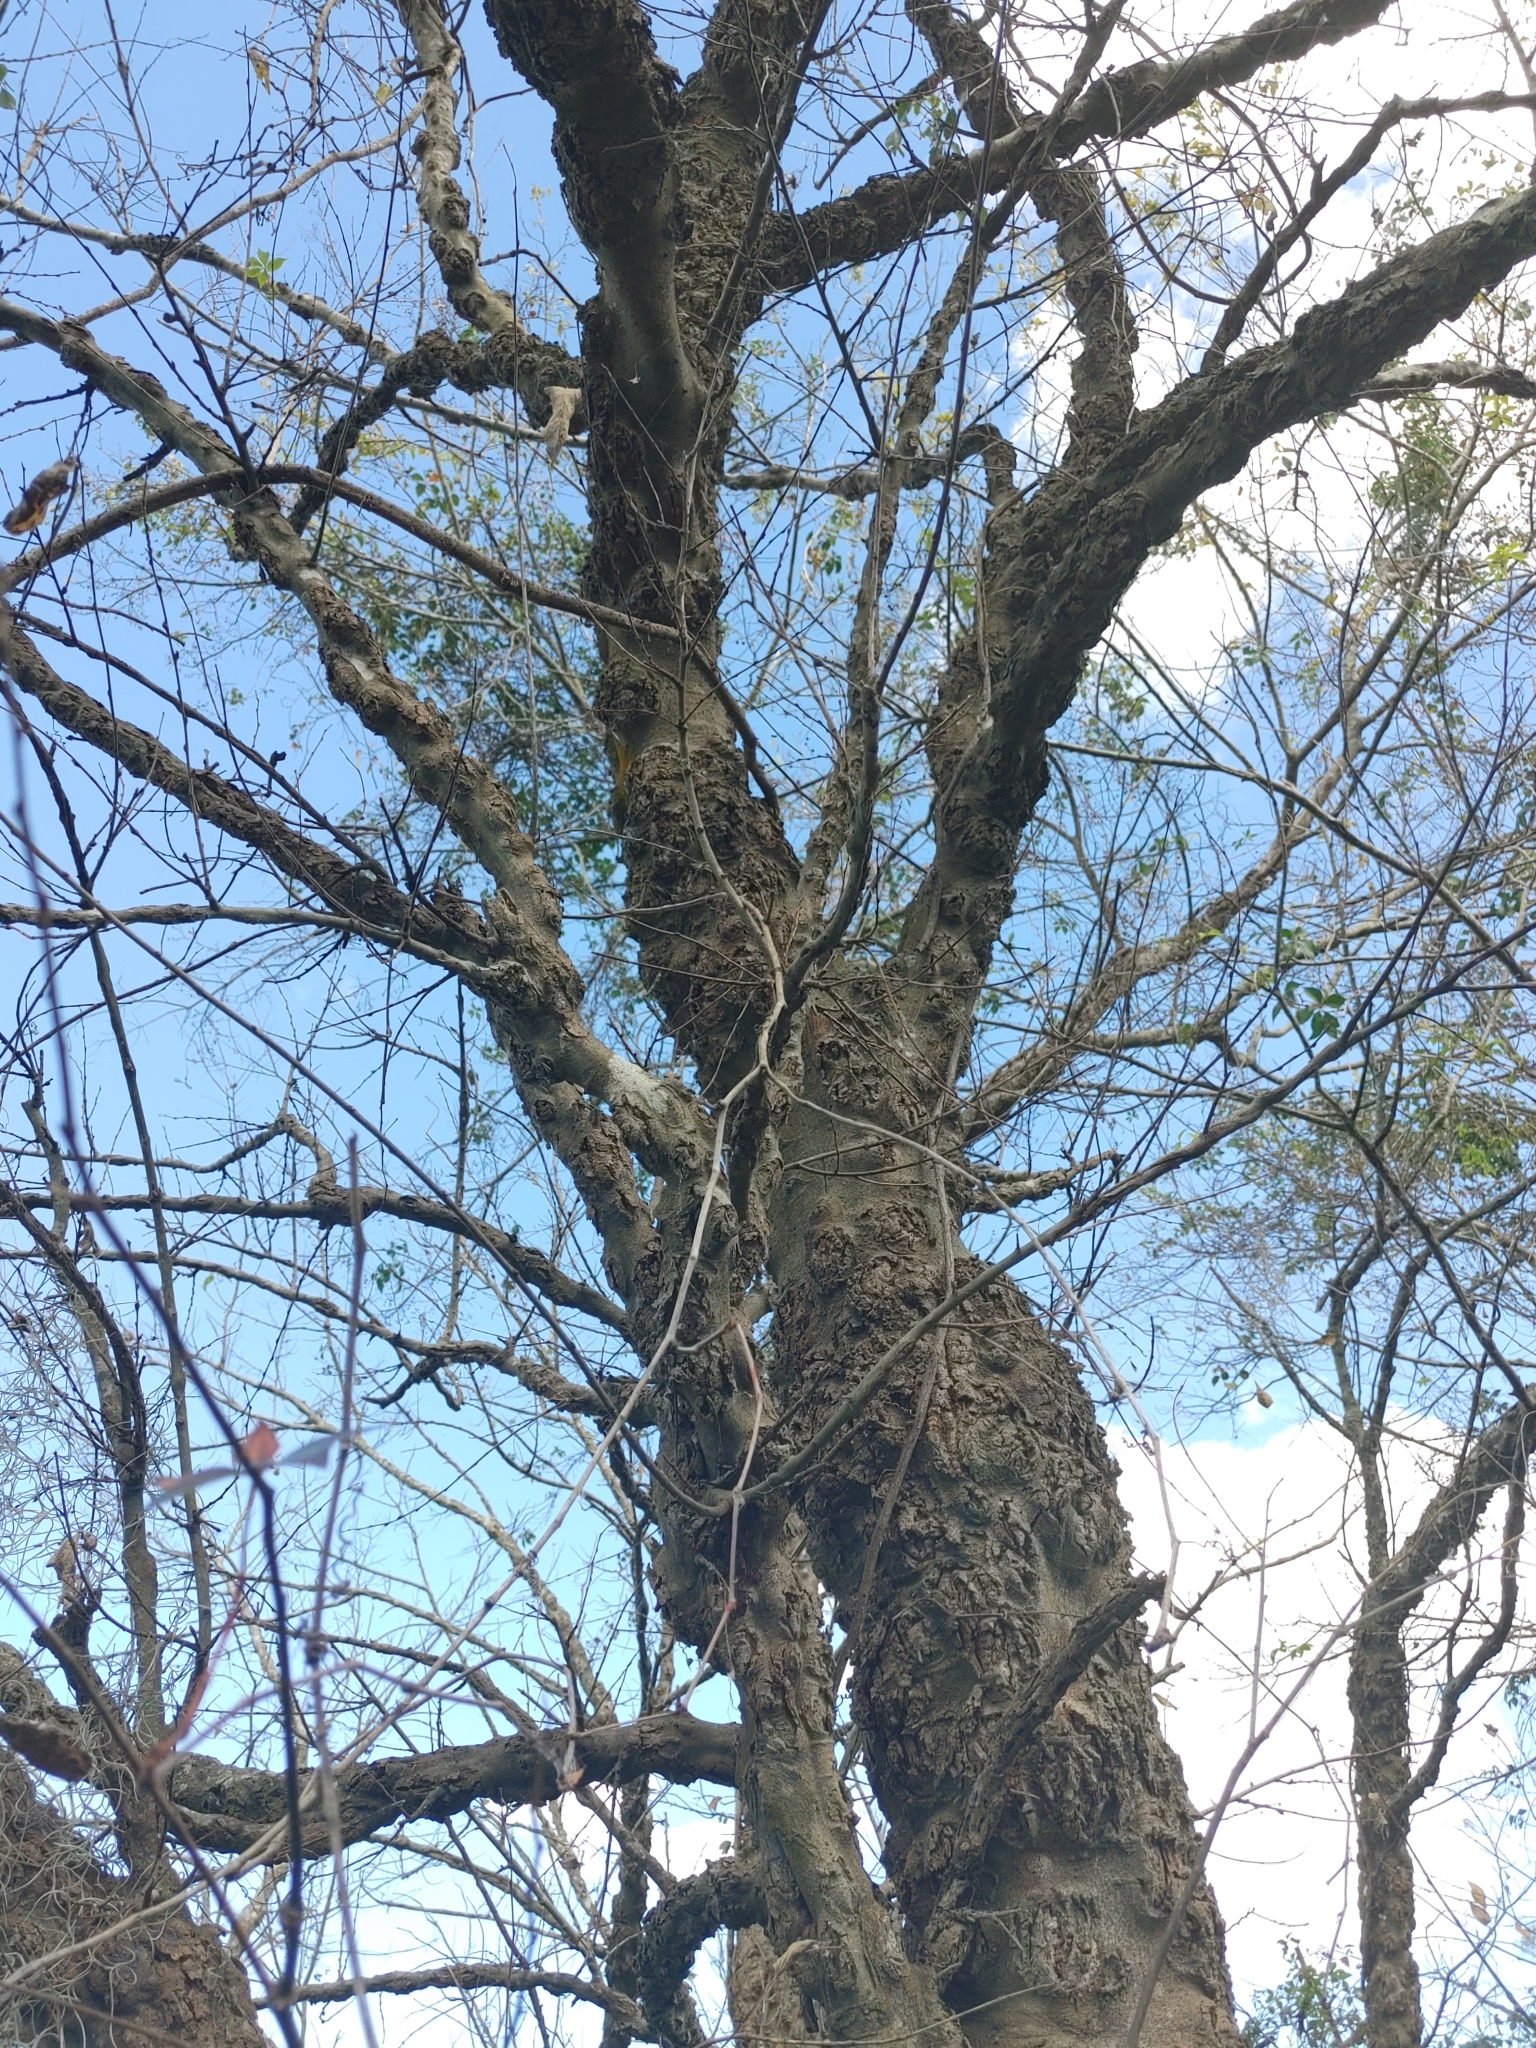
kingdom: Plantae
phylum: Tracheophyta
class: Magnoliopsida
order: Rosales
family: Cannabaceae
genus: Celtis
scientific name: Celtis laevigata
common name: Sugarberry
